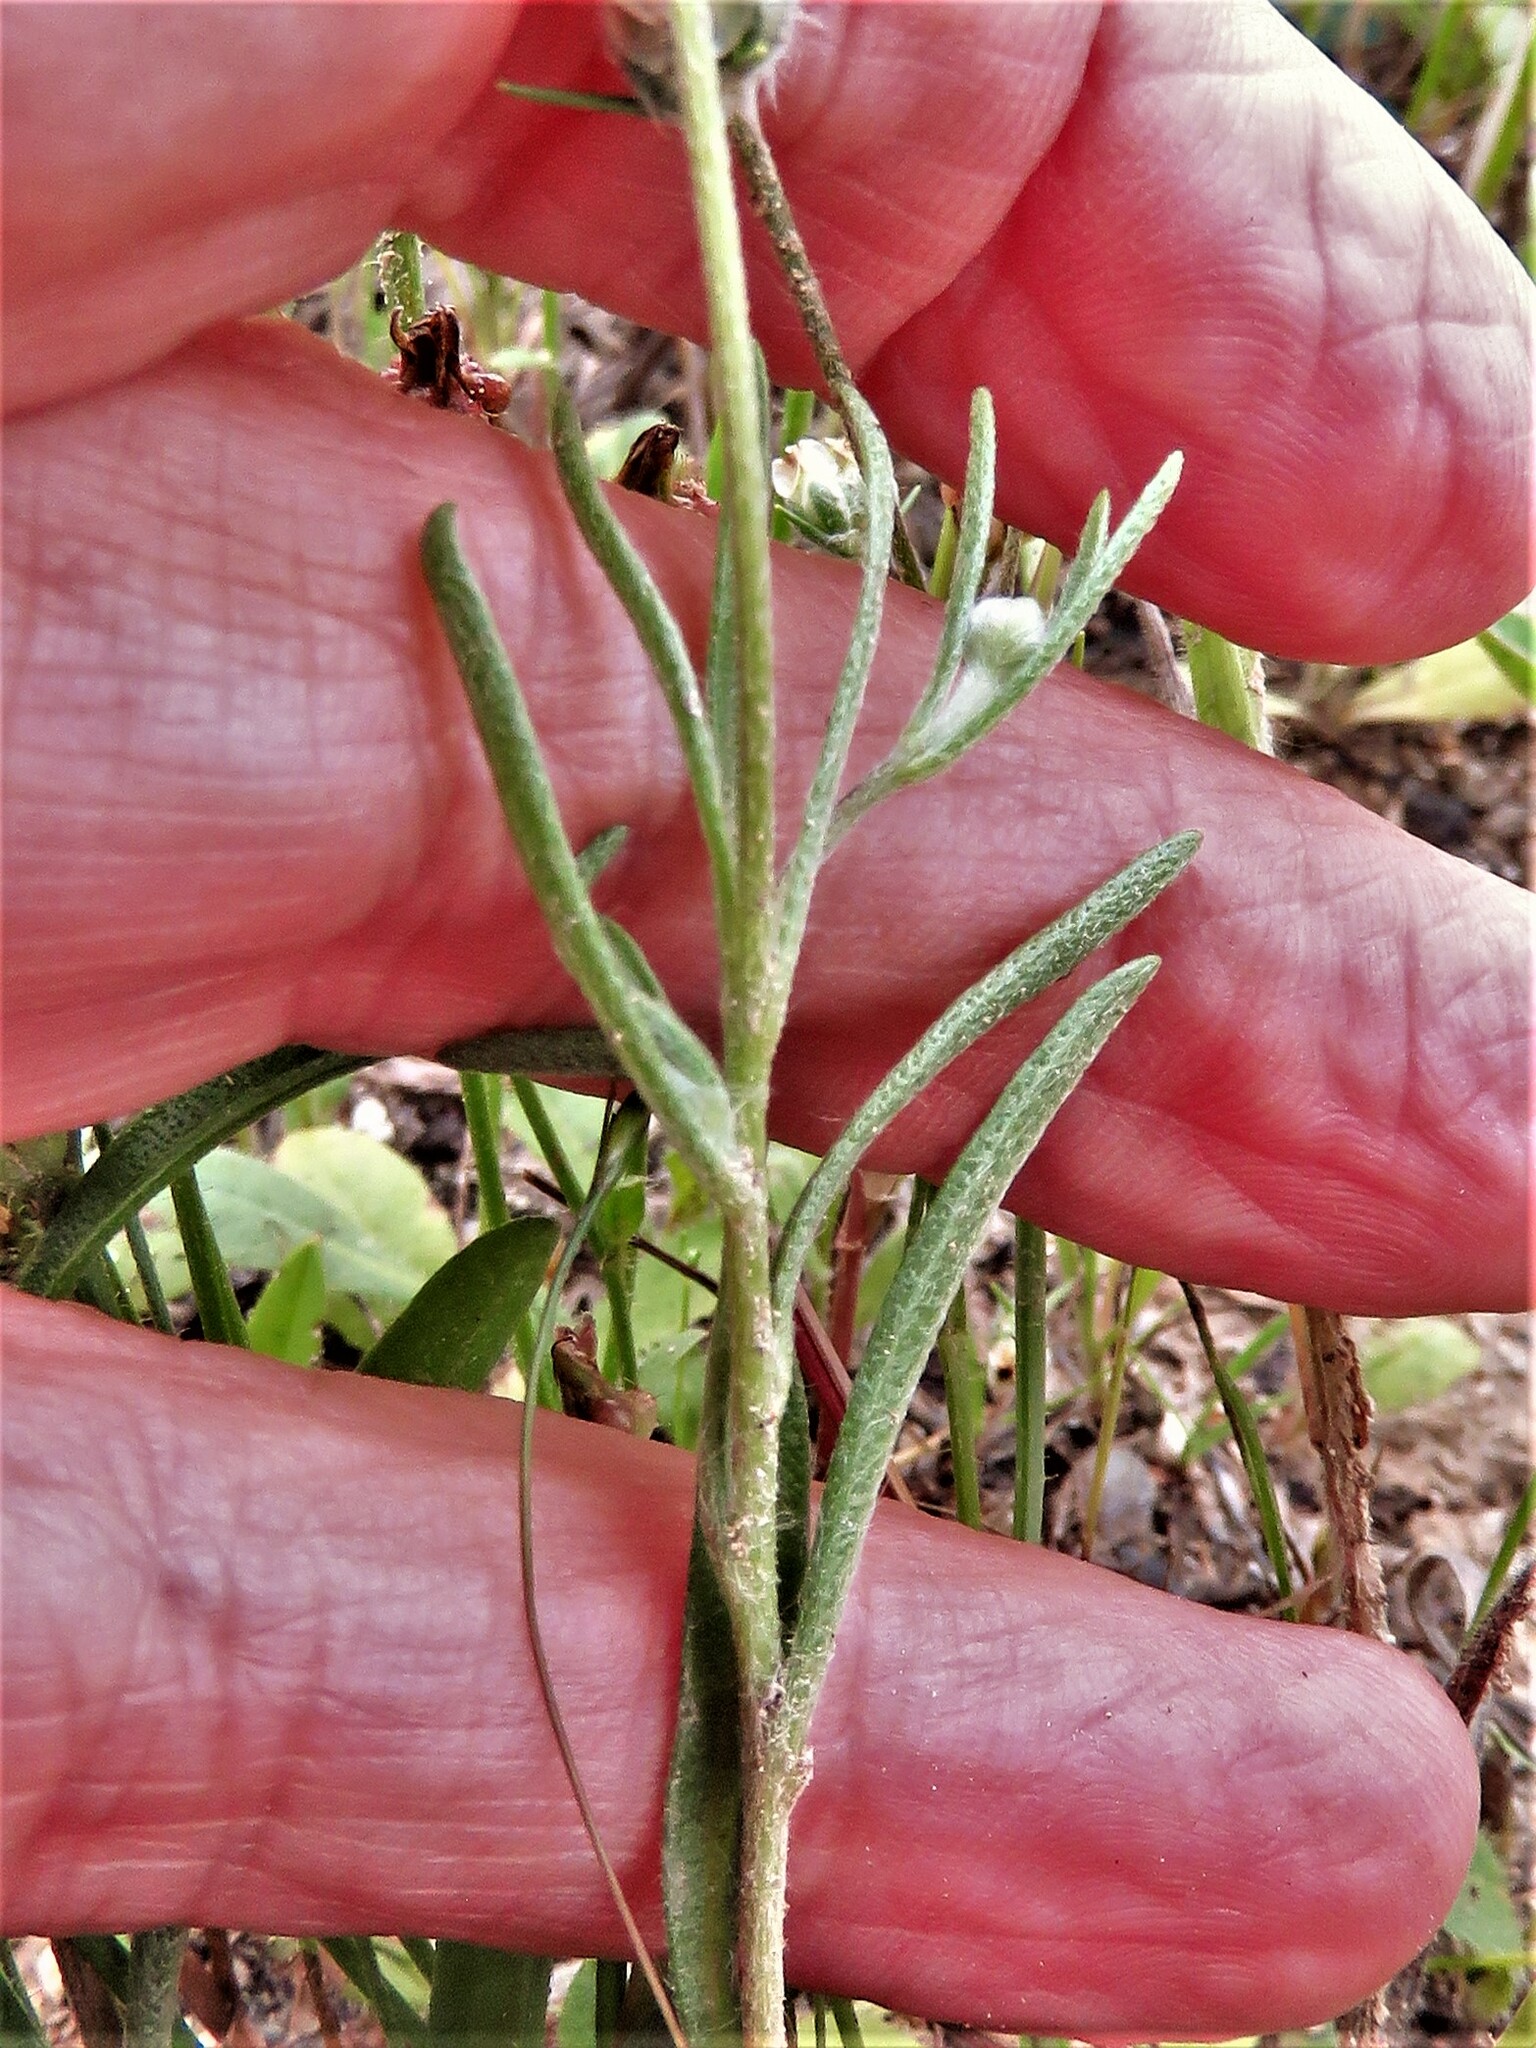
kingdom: Plantae
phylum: Tracheophyta
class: Magnoliopsida
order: Asterales
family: Asteraceae
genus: Tetraneuris
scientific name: Tetraneuris linearifolia
